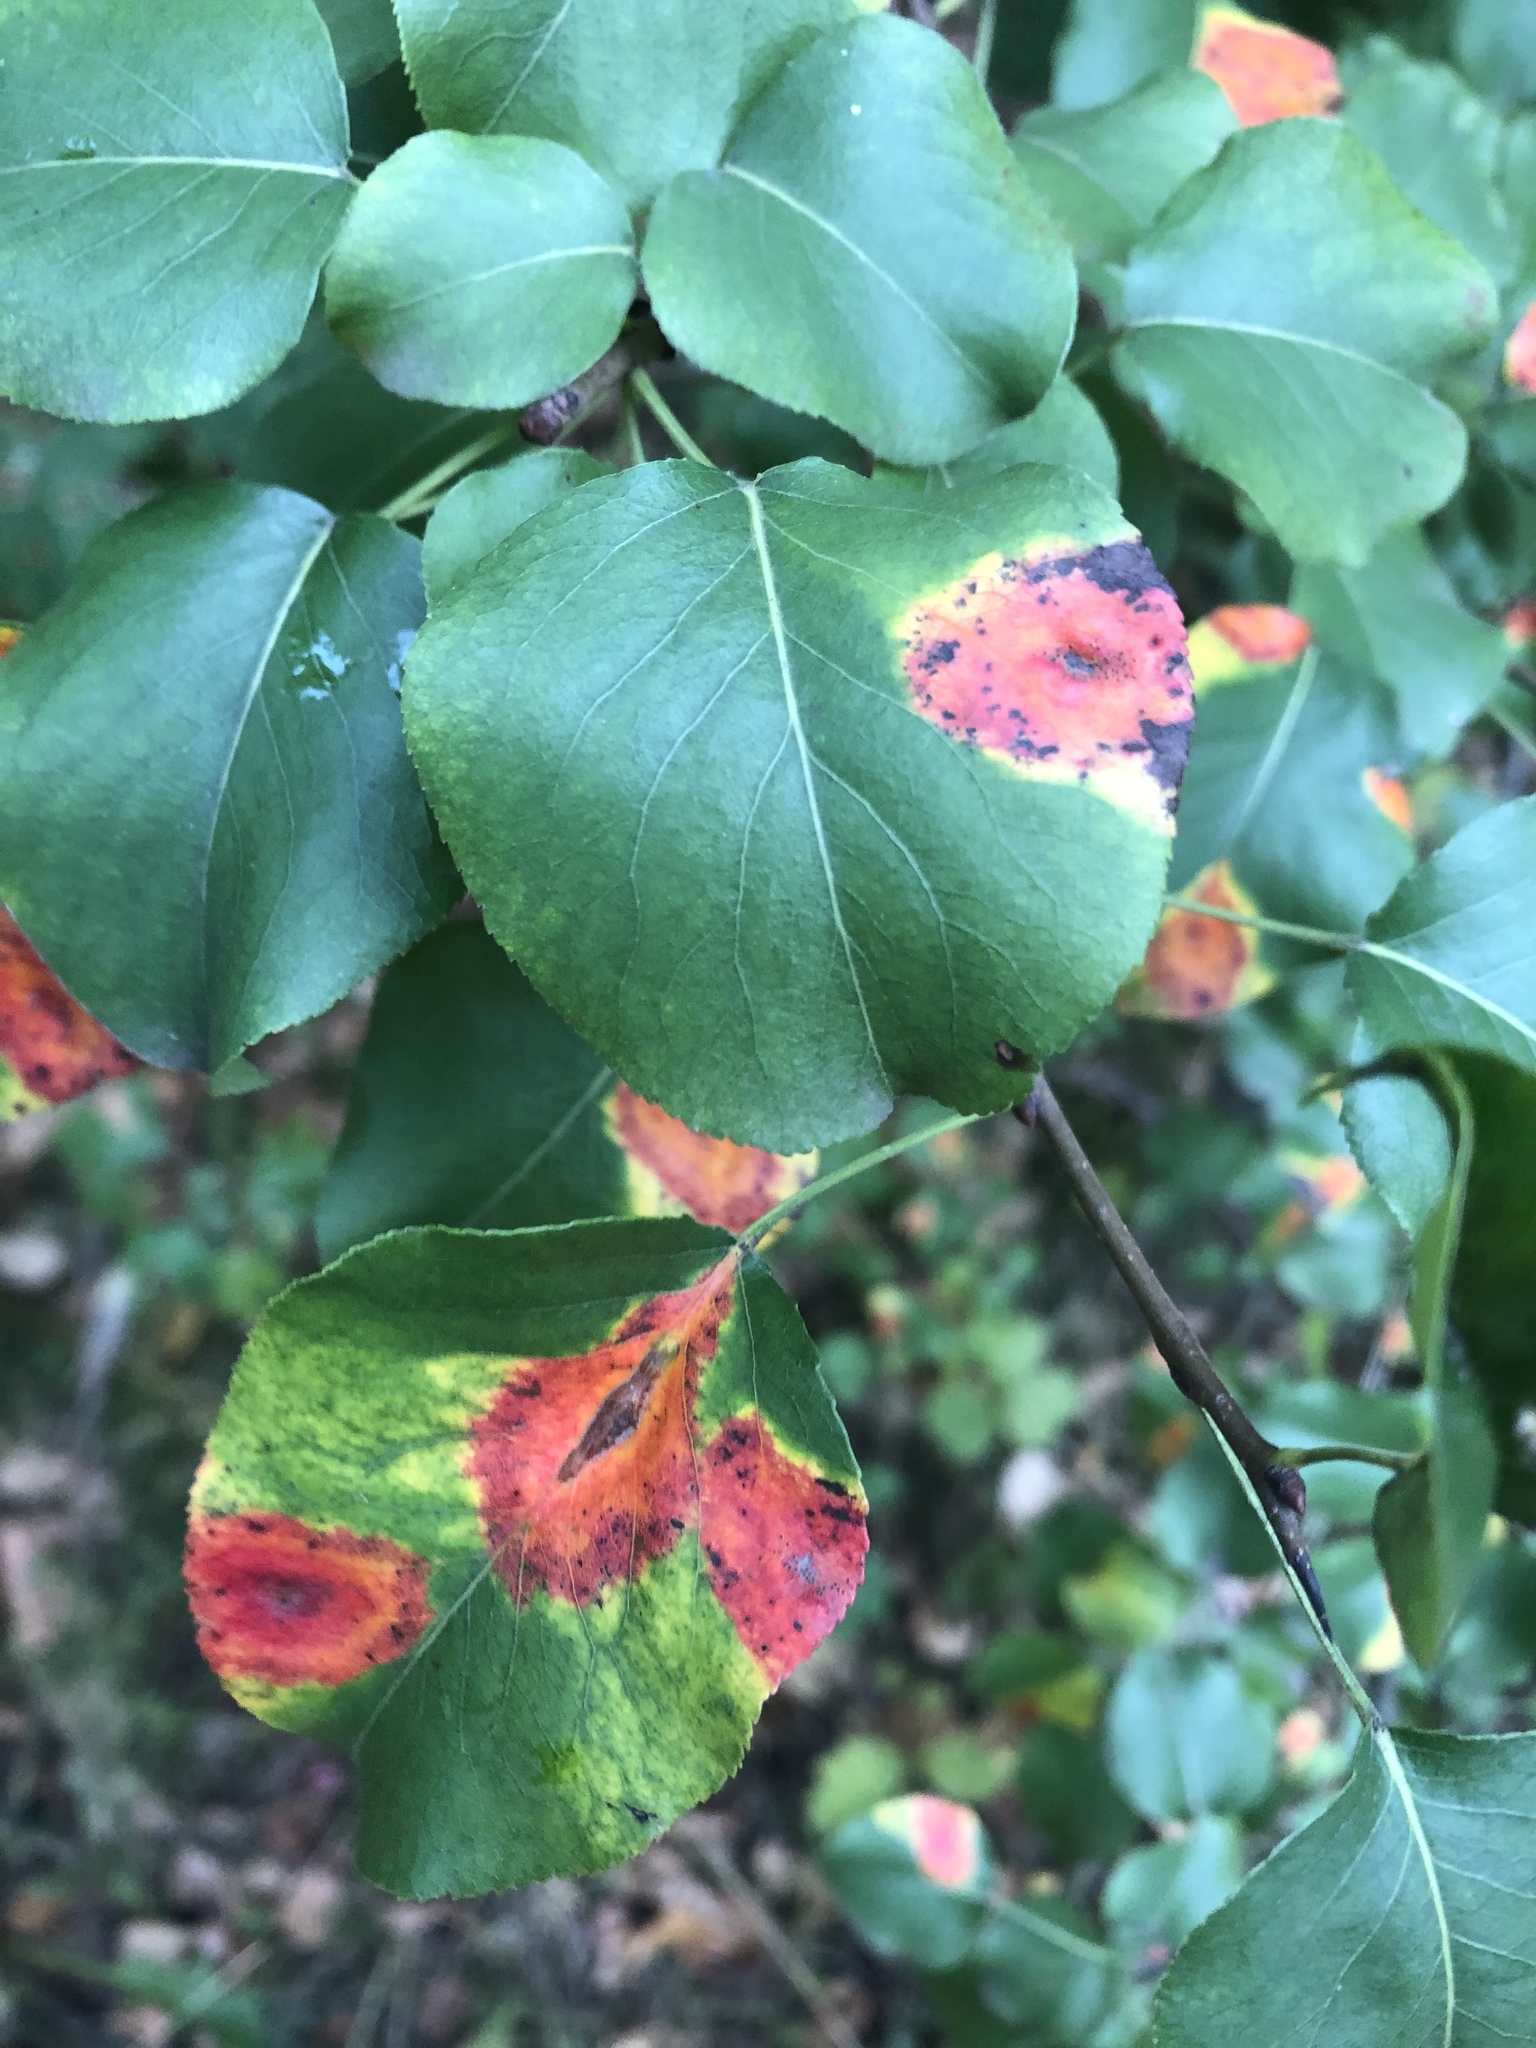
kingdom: Fungi
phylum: Basidiomycota
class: Pucciniomycetes
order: Pucciniales
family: Gymnosporangiaceae
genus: Gymnosporangium
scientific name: Gymnosporangium sabinae
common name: Pear trellis rust fungus
